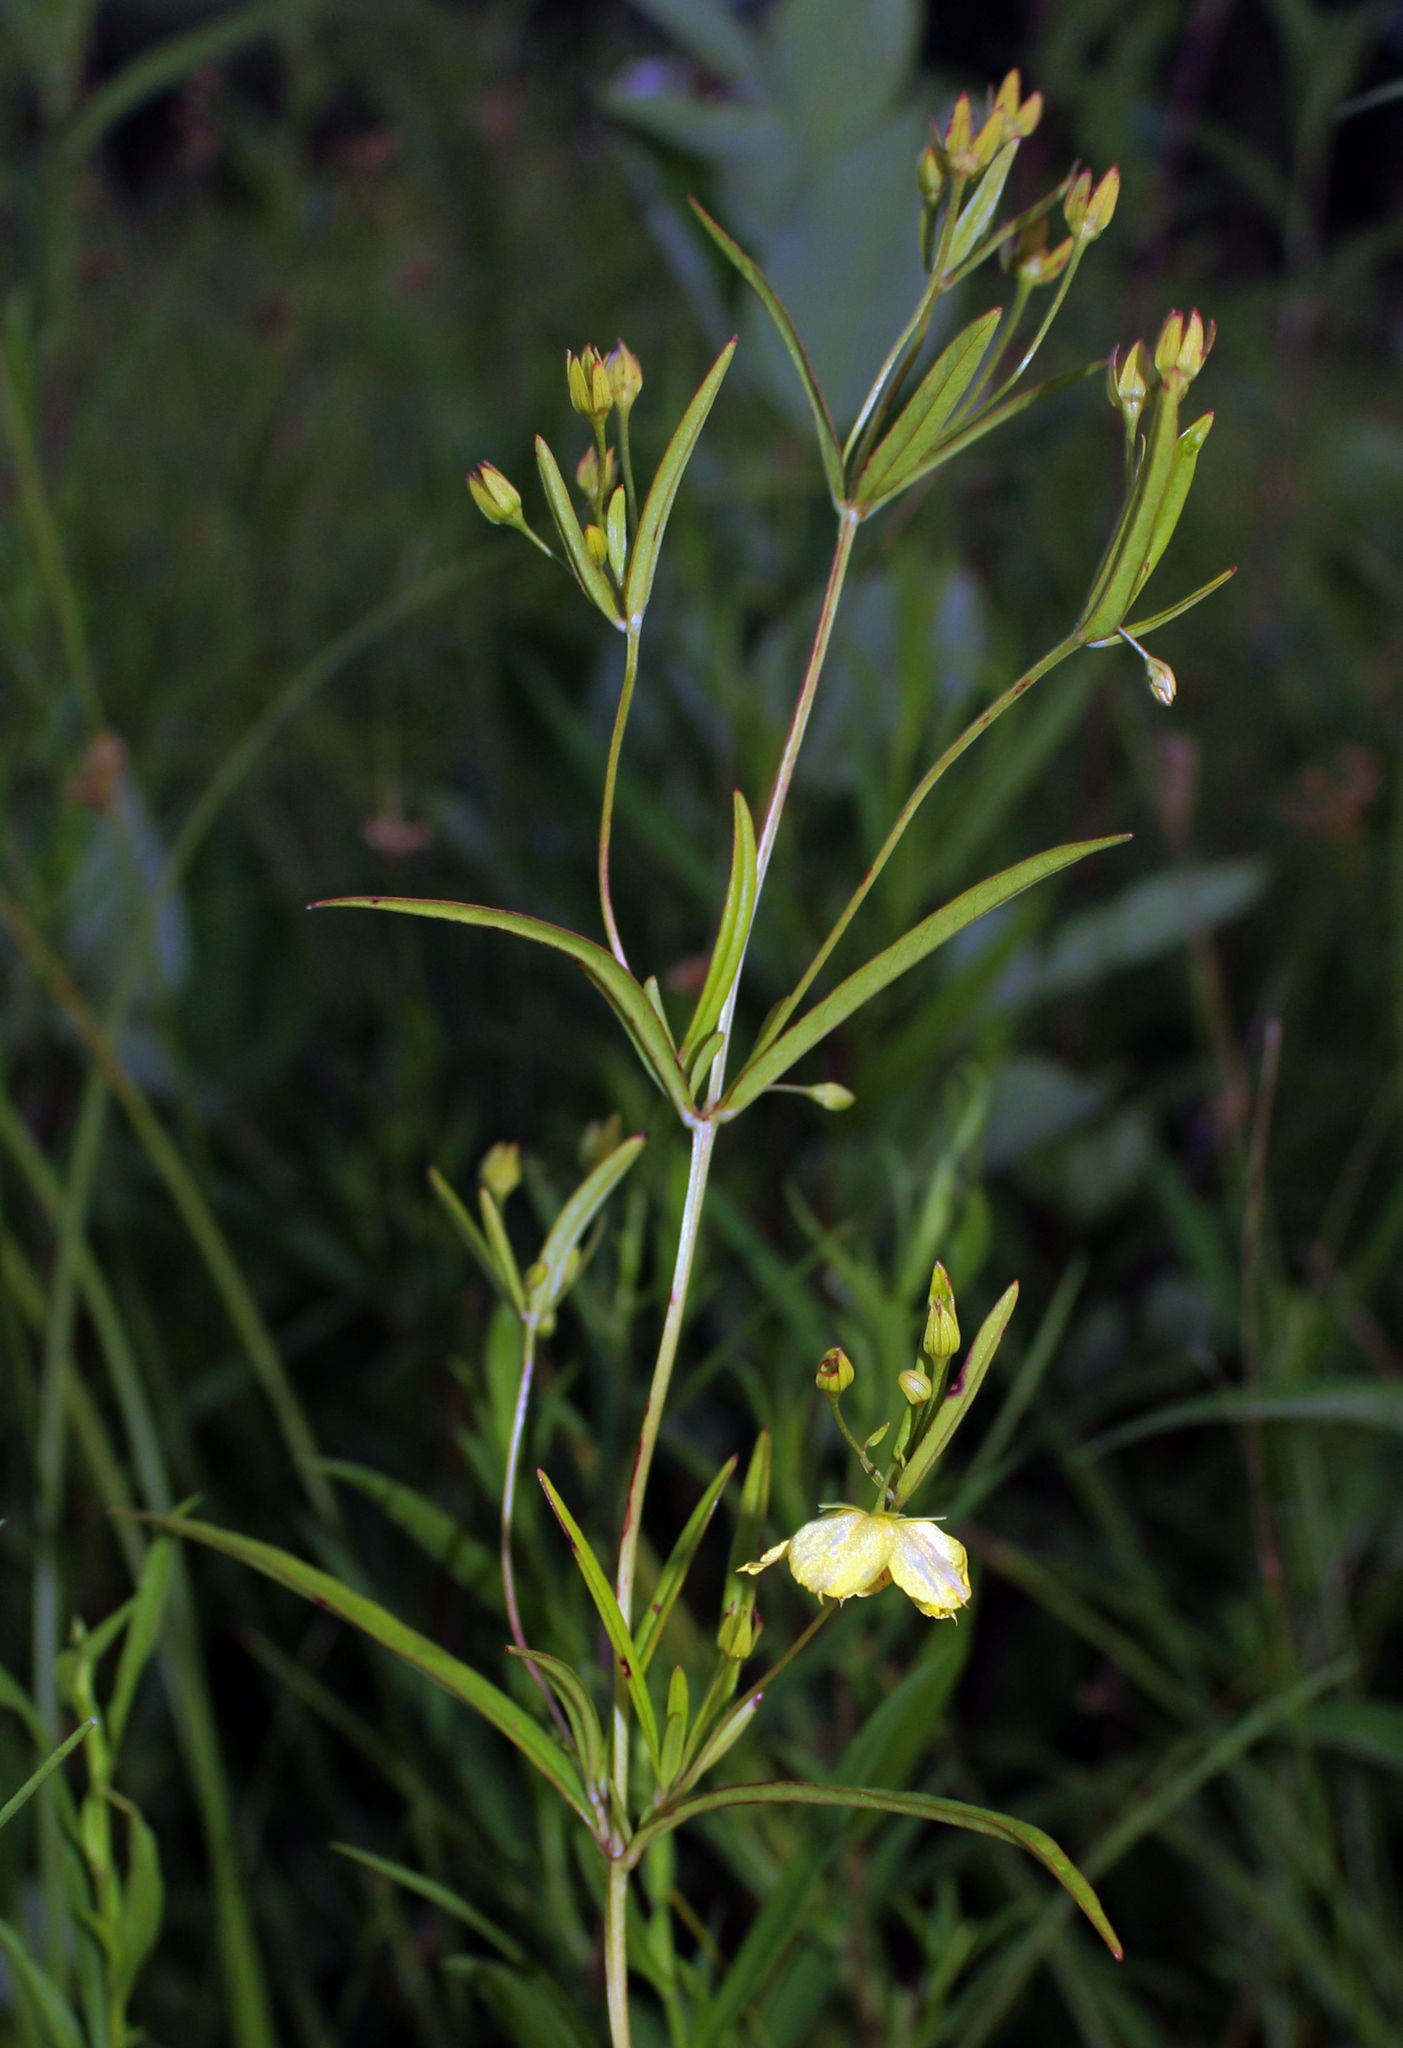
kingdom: Plantae
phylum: Tracheophyta
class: Magnoliopsida
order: Ericales
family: Primulaceae
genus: Lysimachia
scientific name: Lysimachia quadriflora
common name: Four-flowered loosestrife
